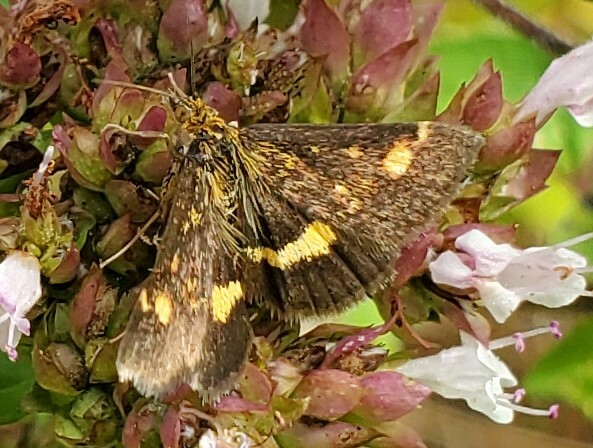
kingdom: Animalia
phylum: Arthropoda
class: Insecta
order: Lepidoptera
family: Crambidae
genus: Pyrausta
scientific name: Pyrausta aurata
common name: Small purple & gold
